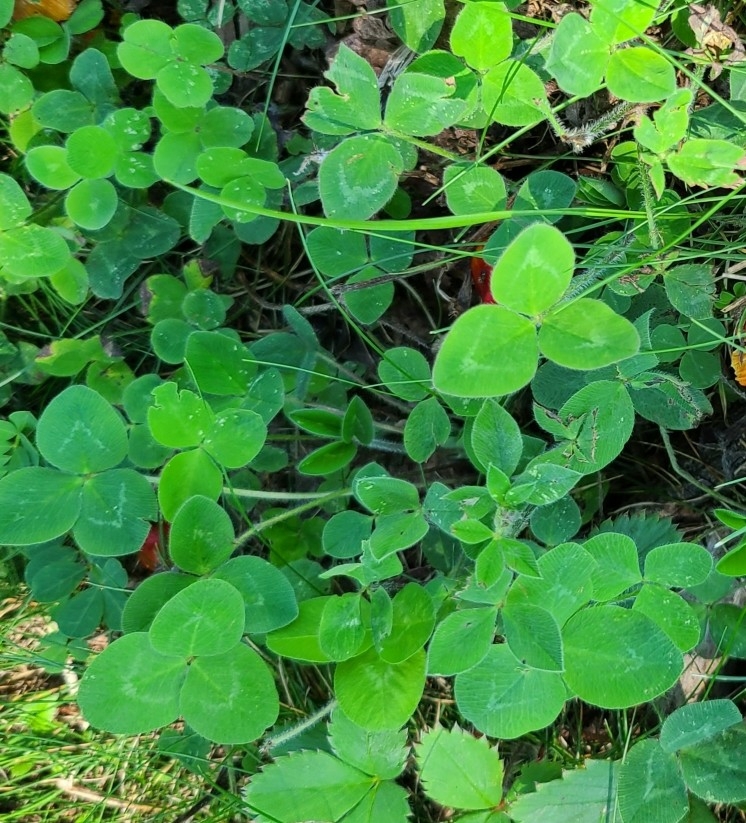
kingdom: Plantae
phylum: Tracheophyta
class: Magnoliopsida
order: Fabales
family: Fabaceae
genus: Trifolium
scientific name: Trifolium pratense
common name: Red clover
